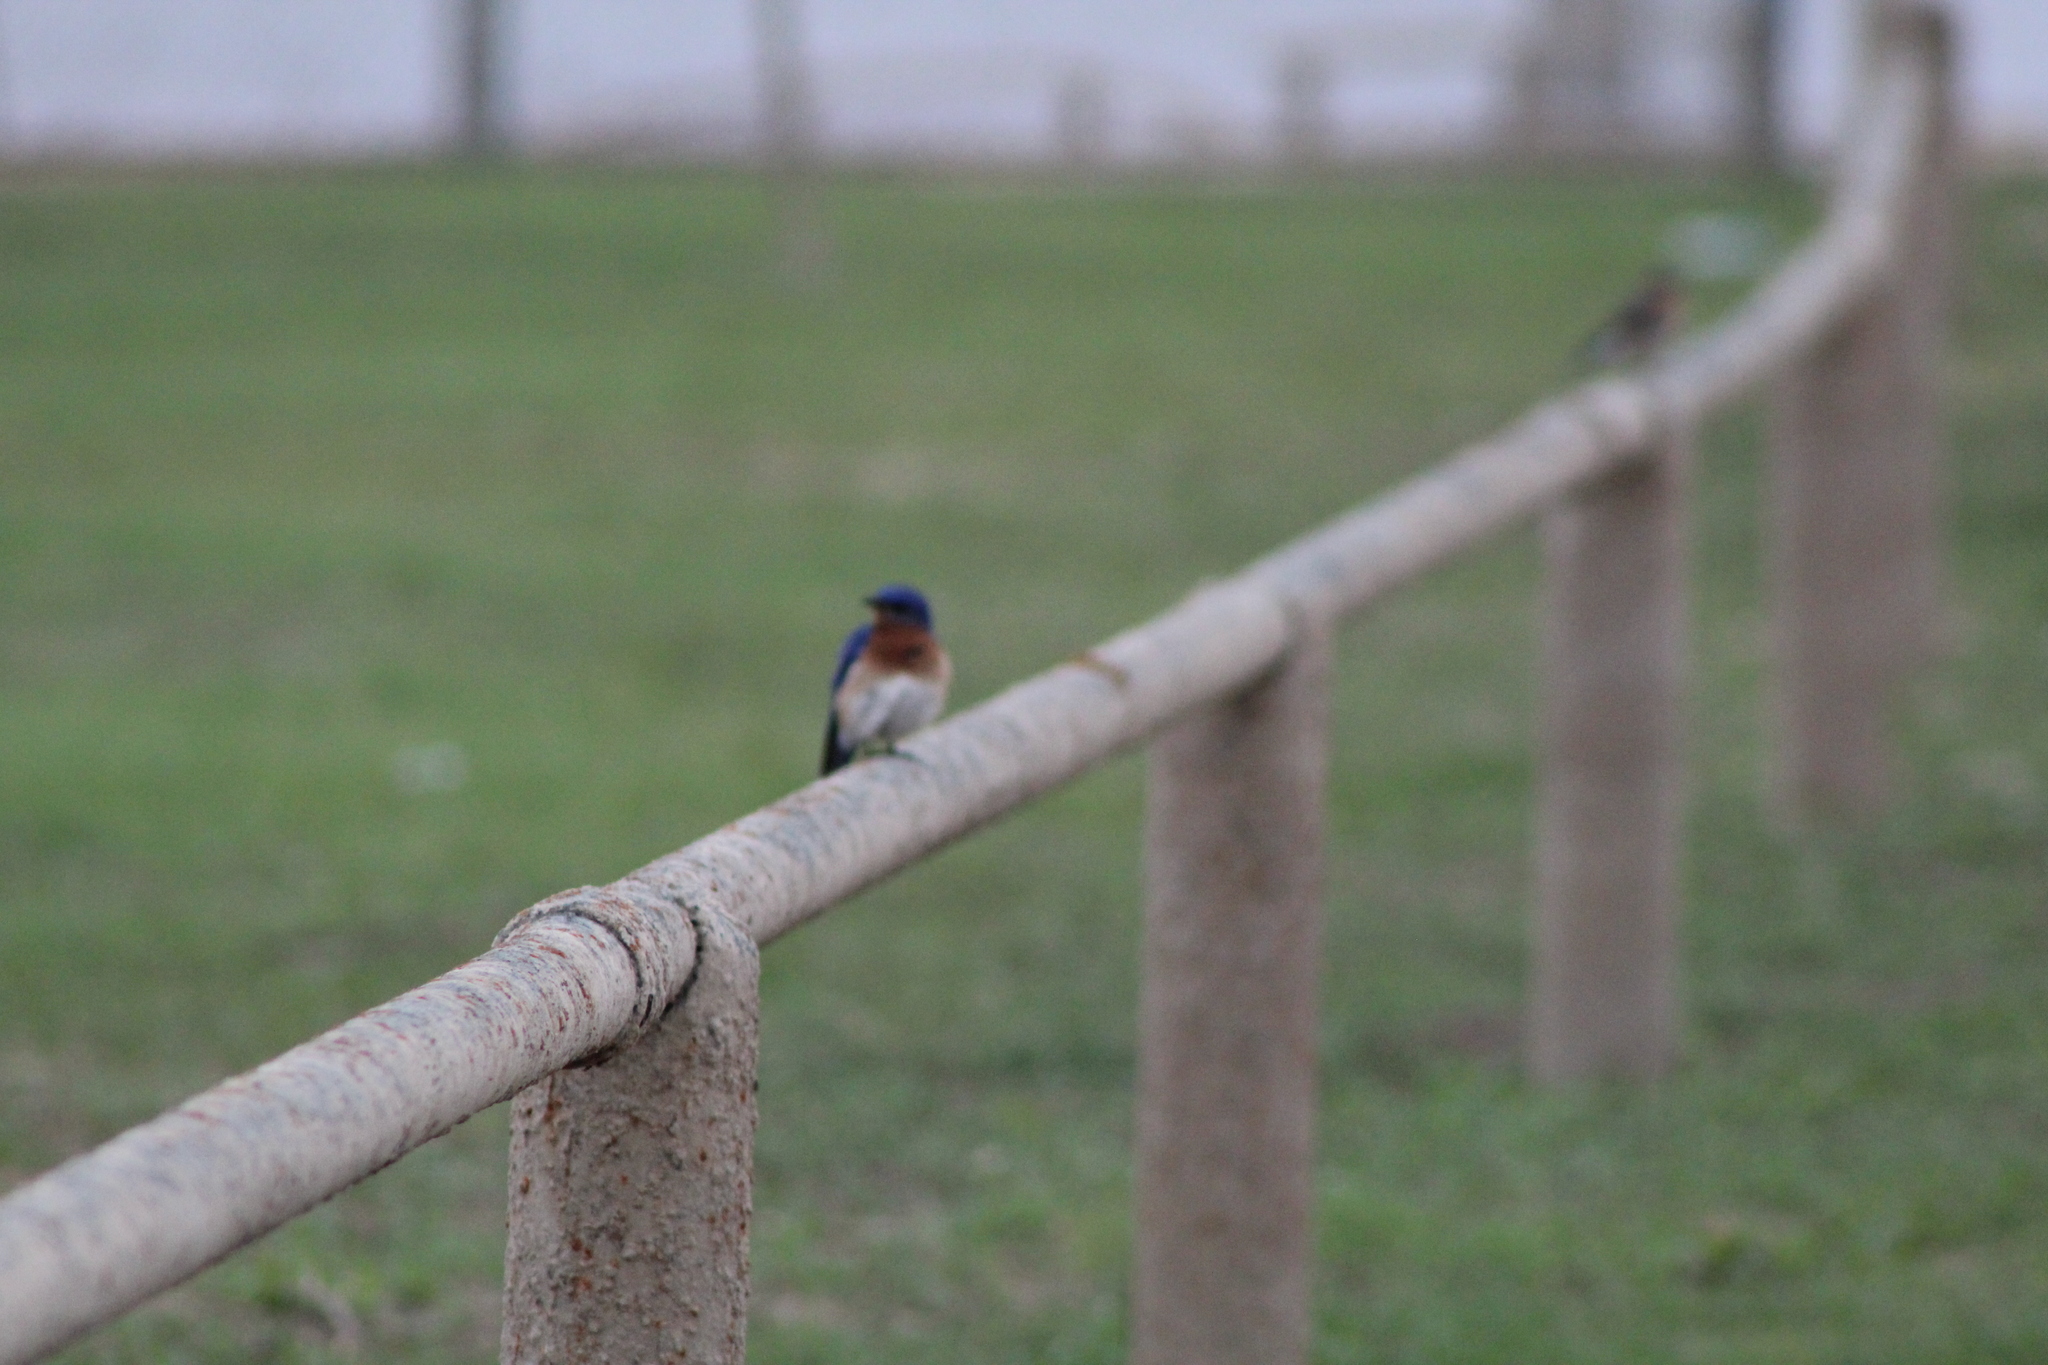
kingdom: Animalia
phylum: Chordata
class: Aves
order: Passeriformes
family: Turdidae
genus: Sialia
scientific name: Sialia sialis
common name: Eastern bluebird
